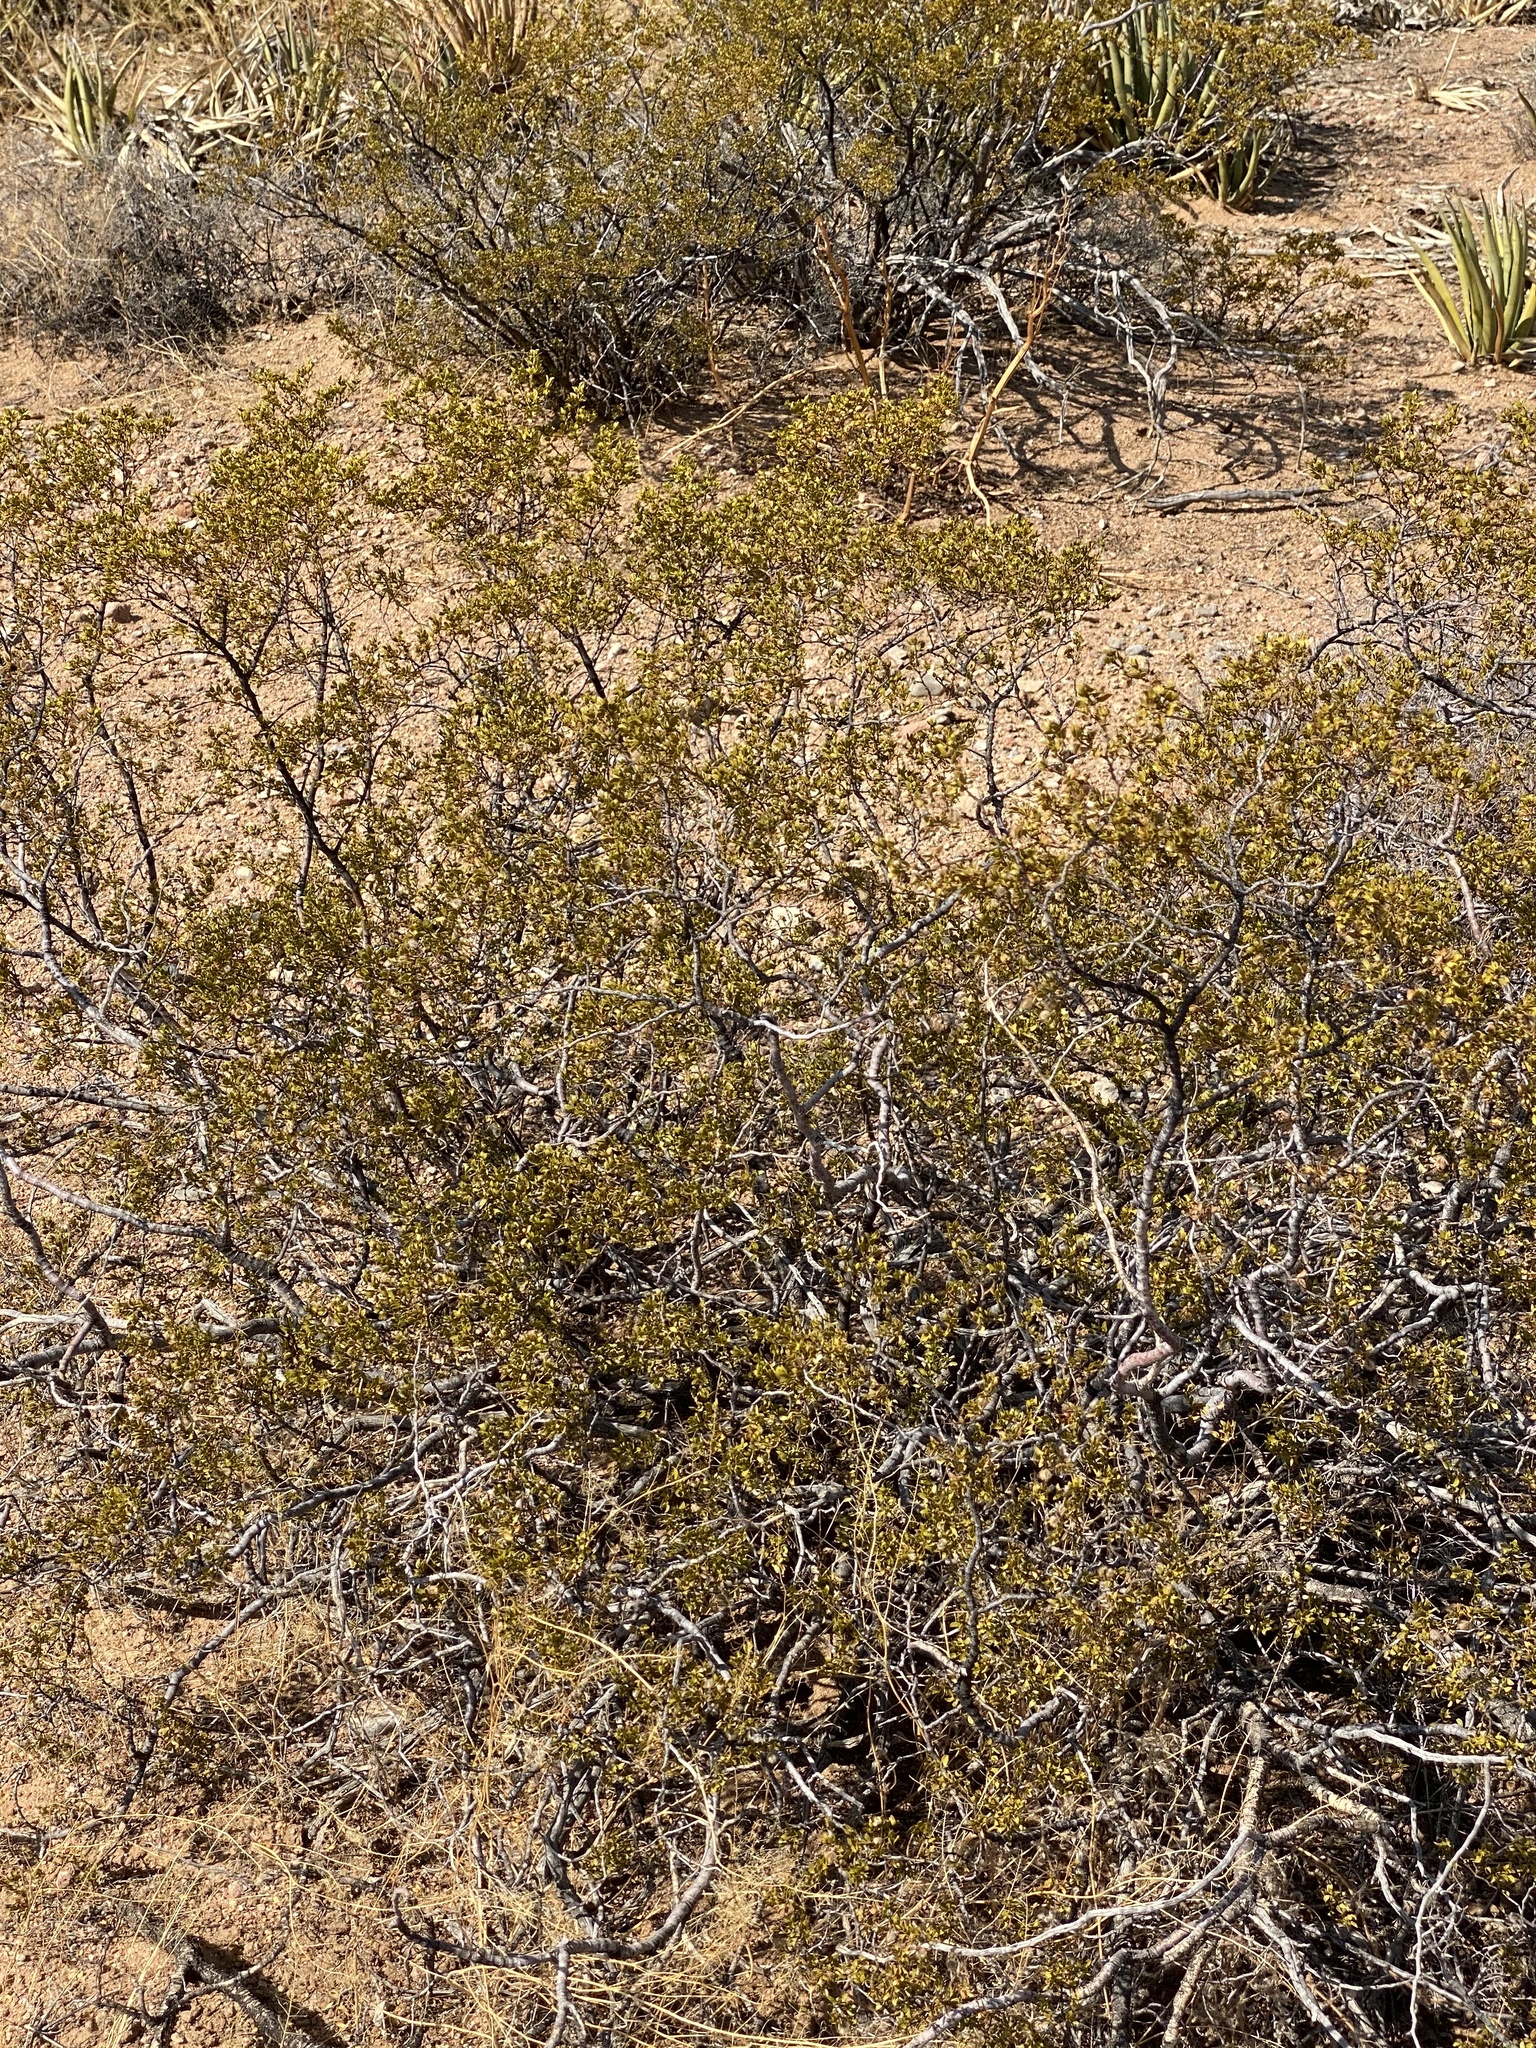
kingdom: Plantae
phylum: Tracheophyta
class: Magnoliopsida
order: Zygophyllales
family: Zygophyllaceae
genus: Larrea
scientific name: Larrea tridentata
